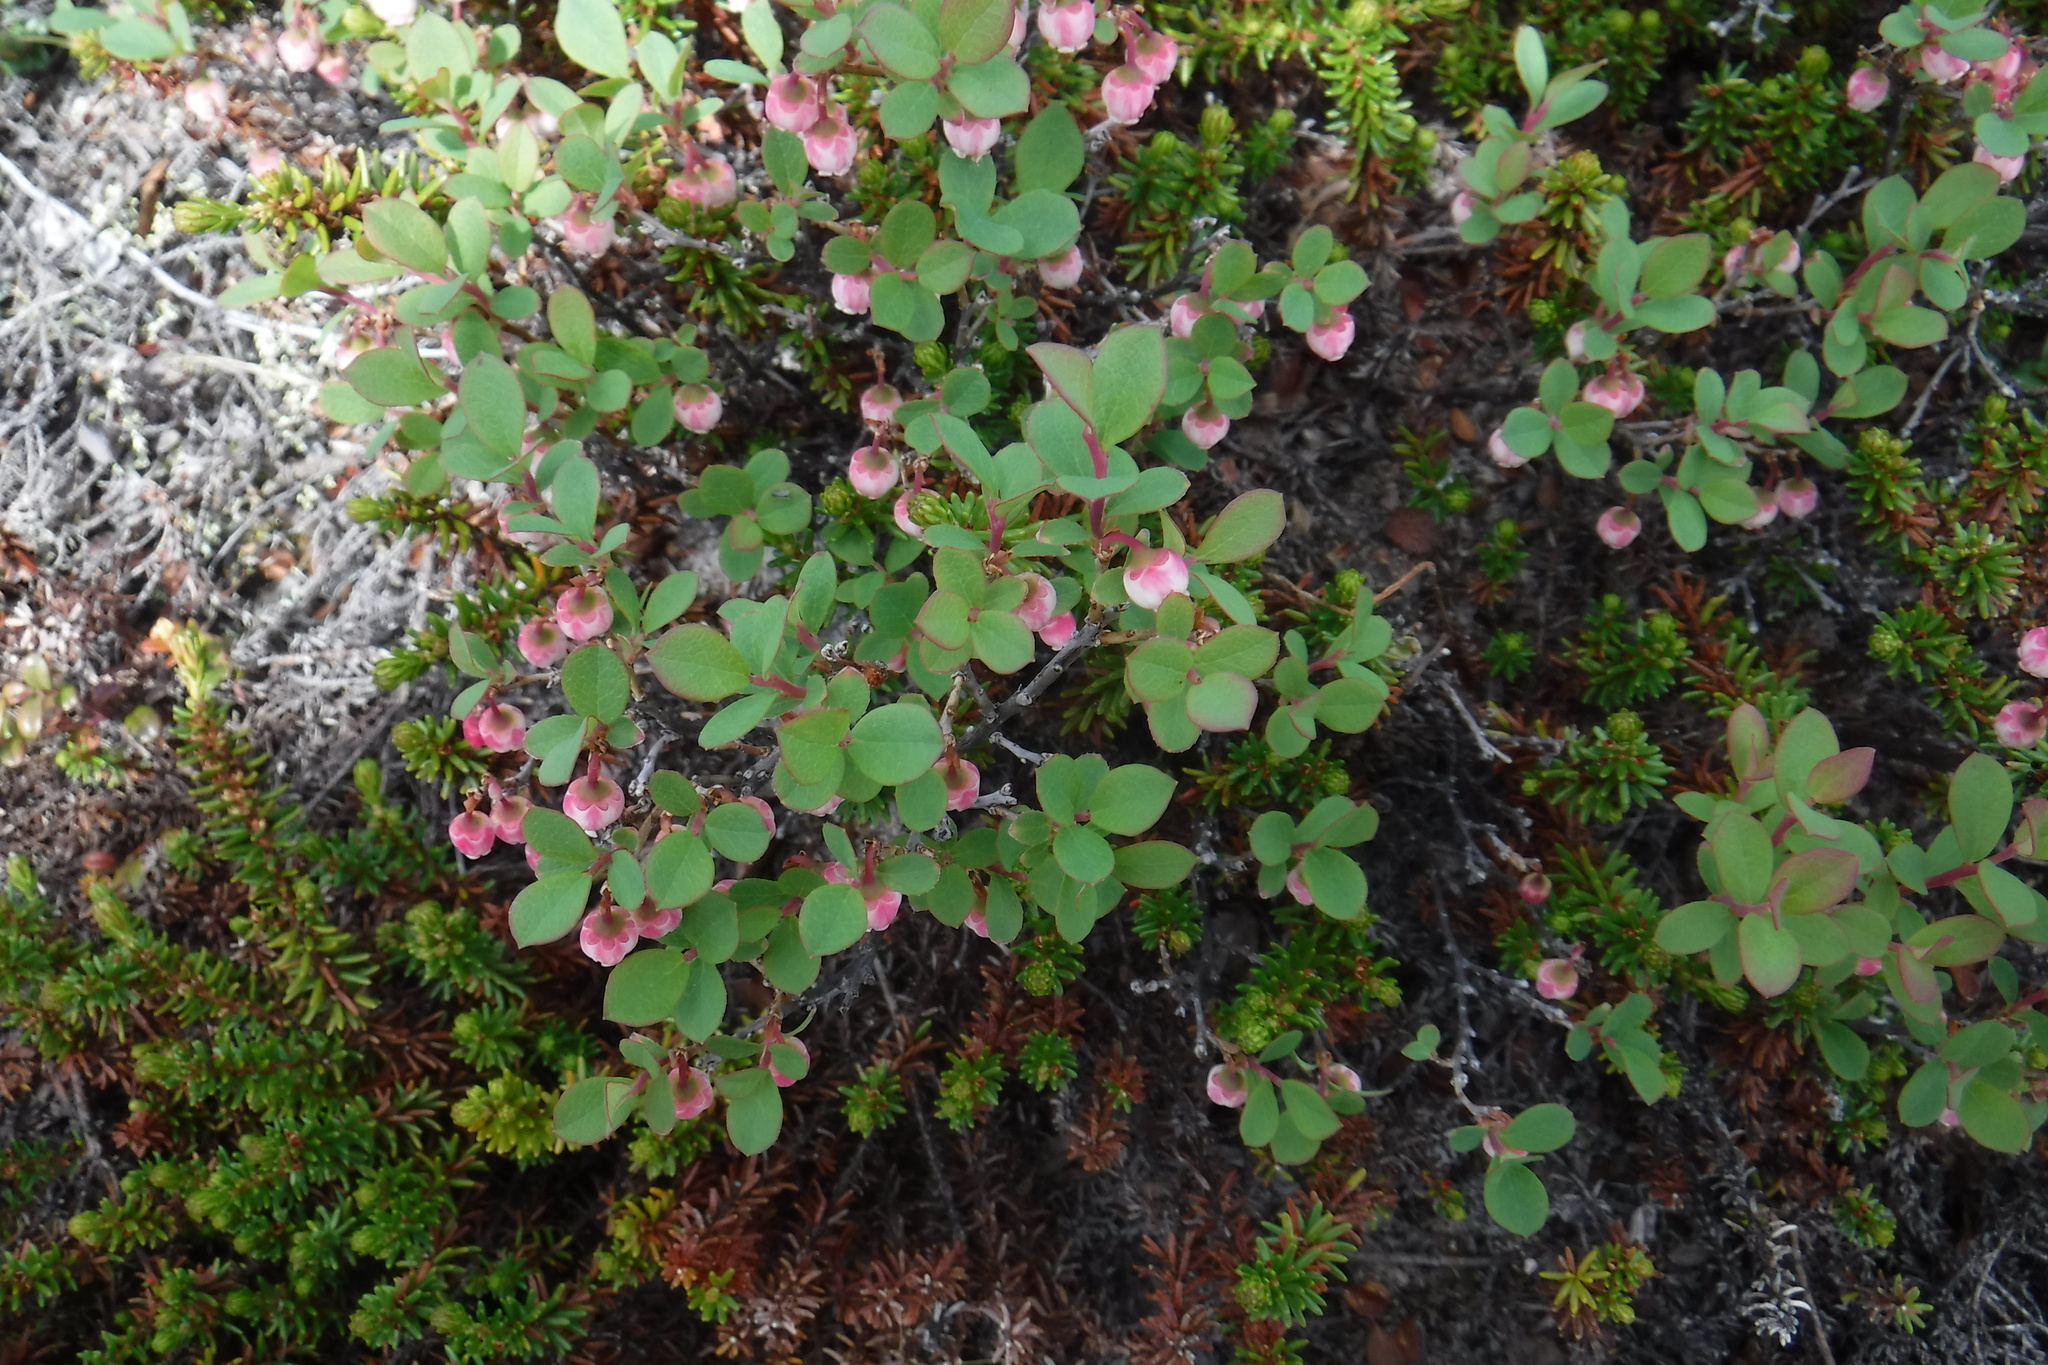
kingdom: Plantae
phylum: Tracheophyta
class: Magnoliopsida
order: Ericales
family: Ericaceae
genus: Vaccinium
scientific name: Vaccinium uliginosum
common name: Bog bilberry
